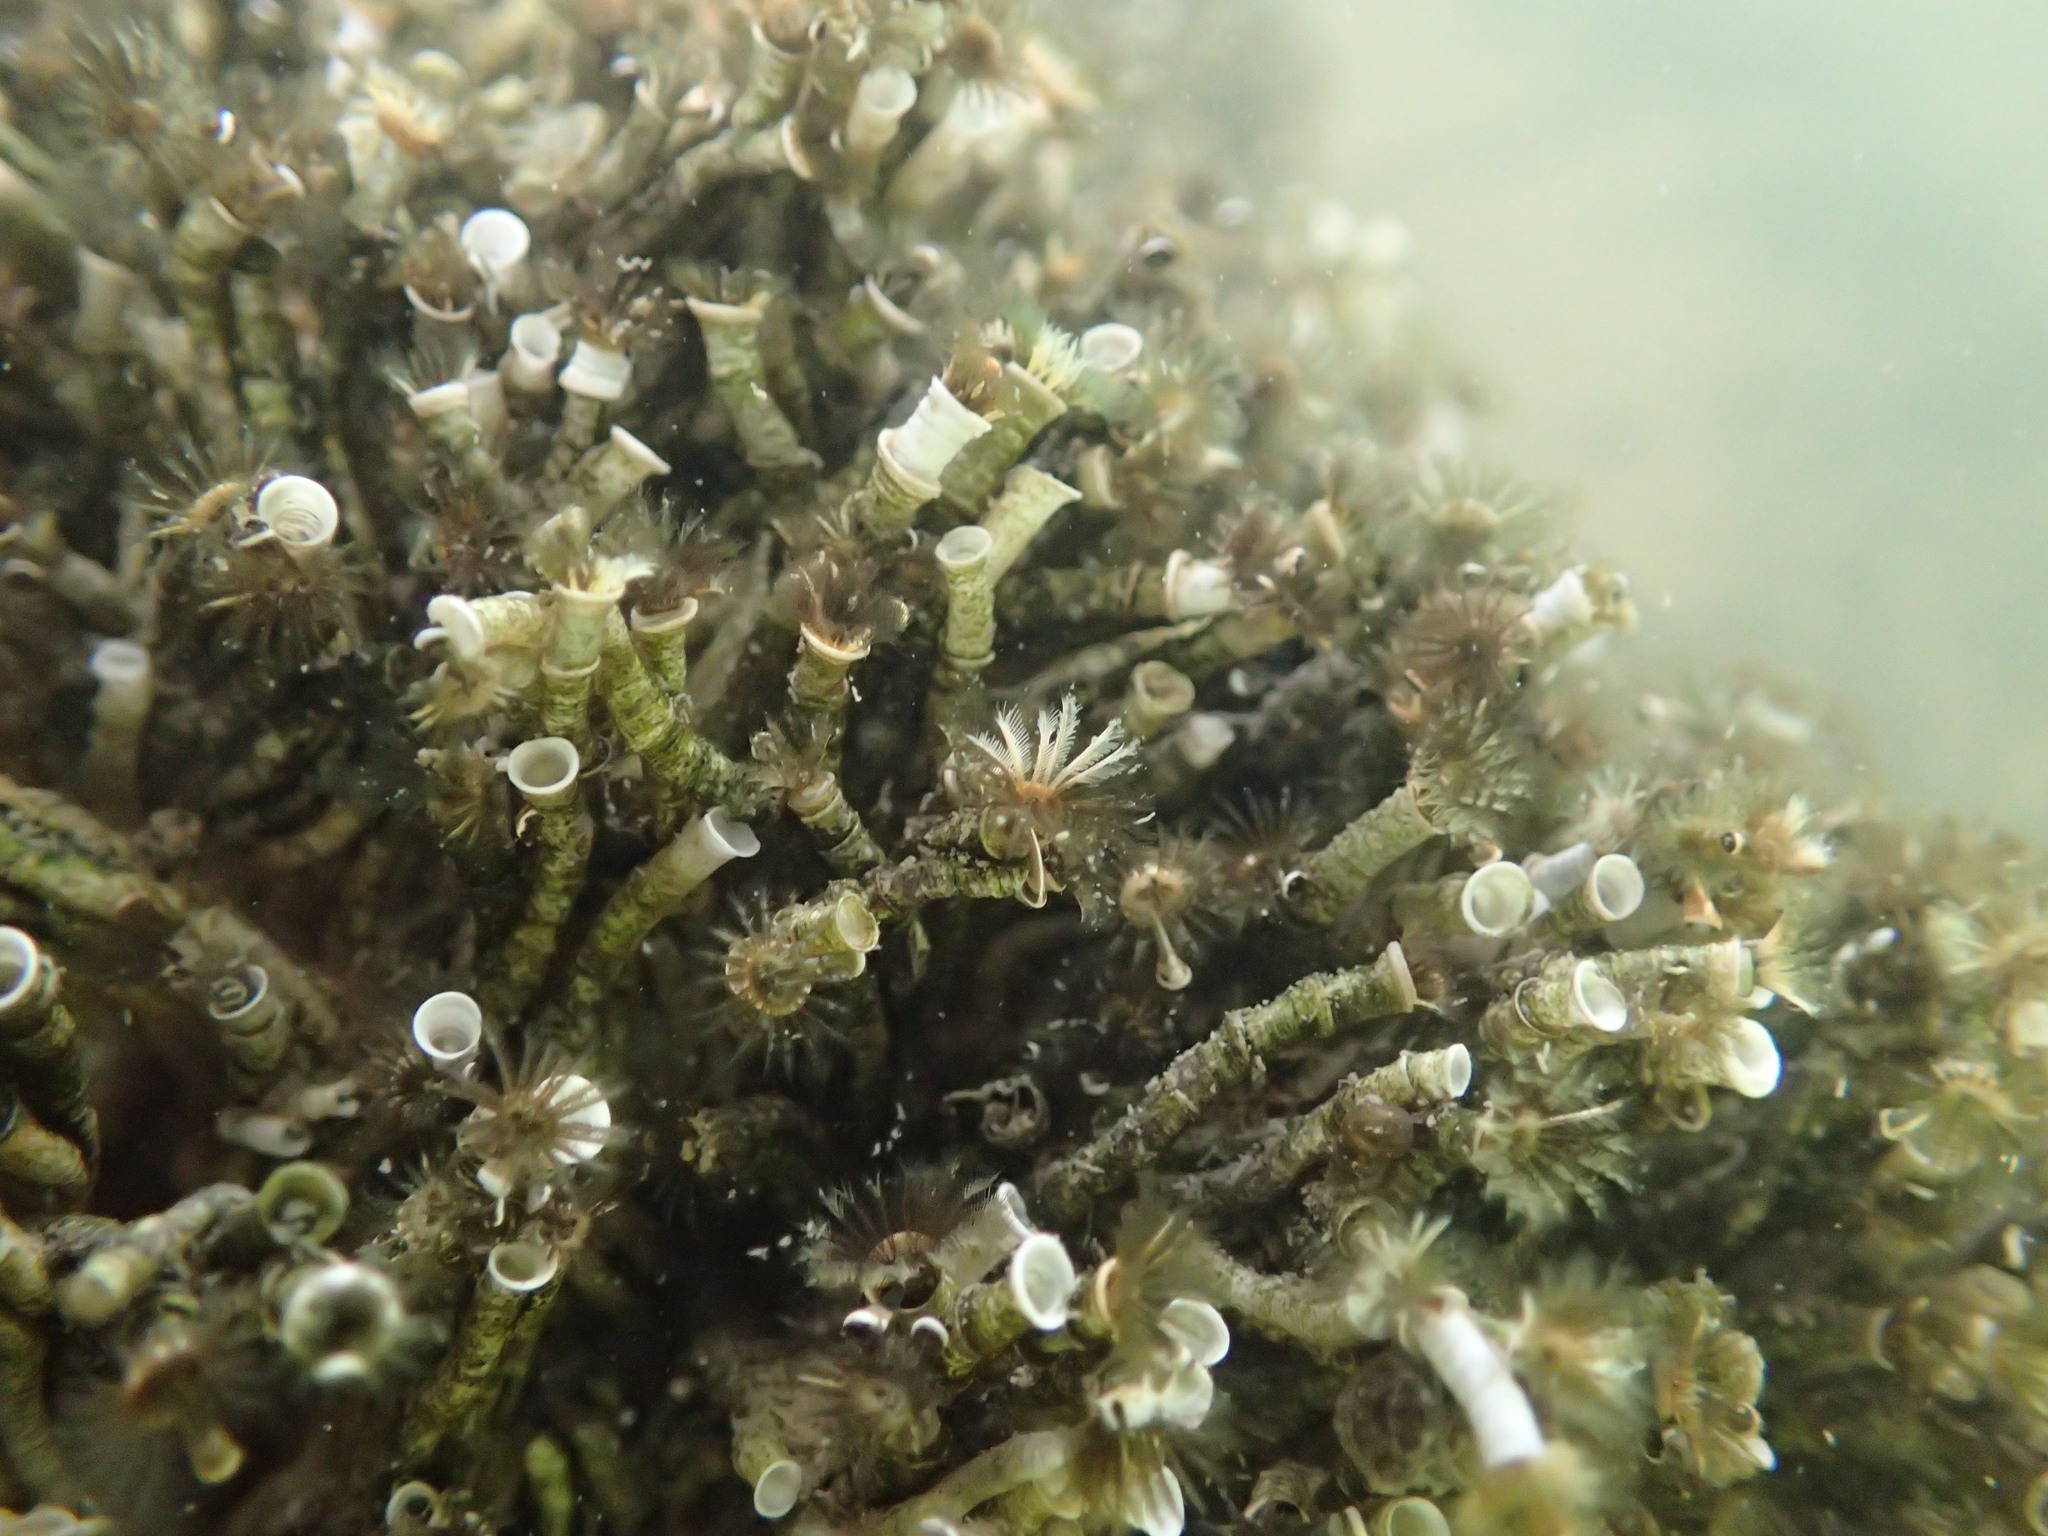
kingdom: Animalia
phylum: Annelida
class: Polychaeta
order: Sabellida
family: Serpulidae
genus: Ficopomatus
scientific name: Ficopomatus enigmaticus
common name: Australian tubeworm
